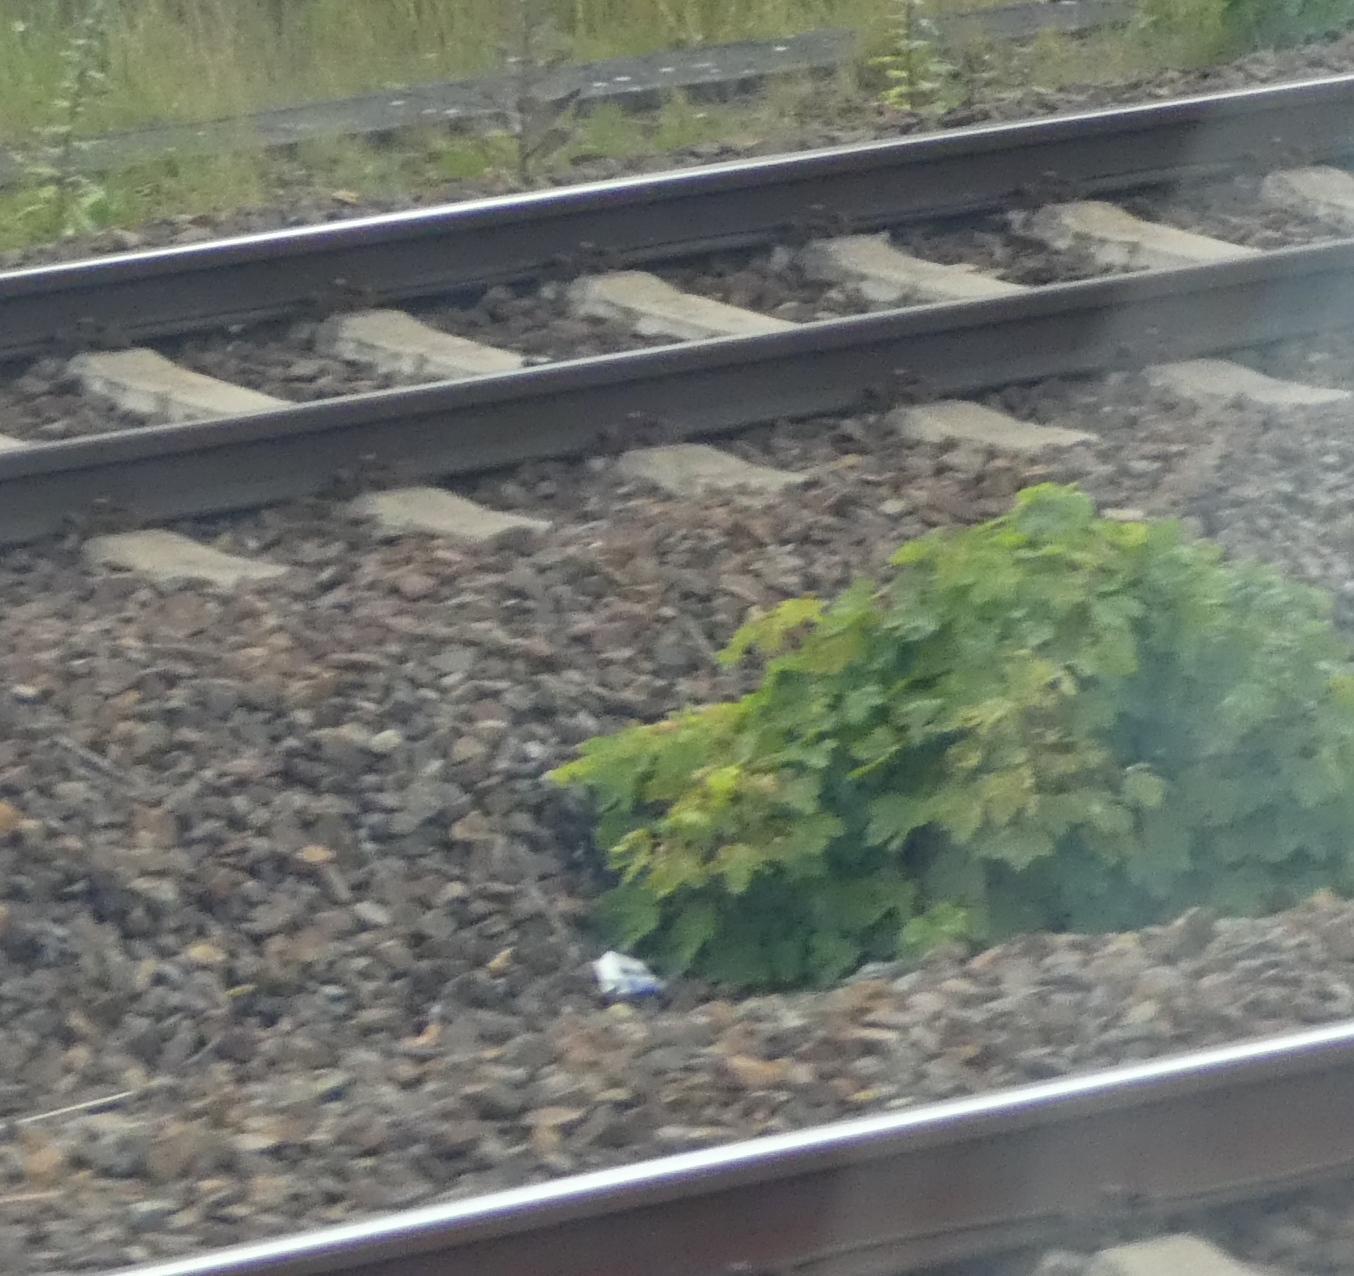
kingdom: Plantae
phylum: Tracheophyta
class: Magnoliopsida
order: Sapindales
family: Sapindaceae
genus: Acer
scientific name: Acer pseudoplatanus
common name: Sycamore
